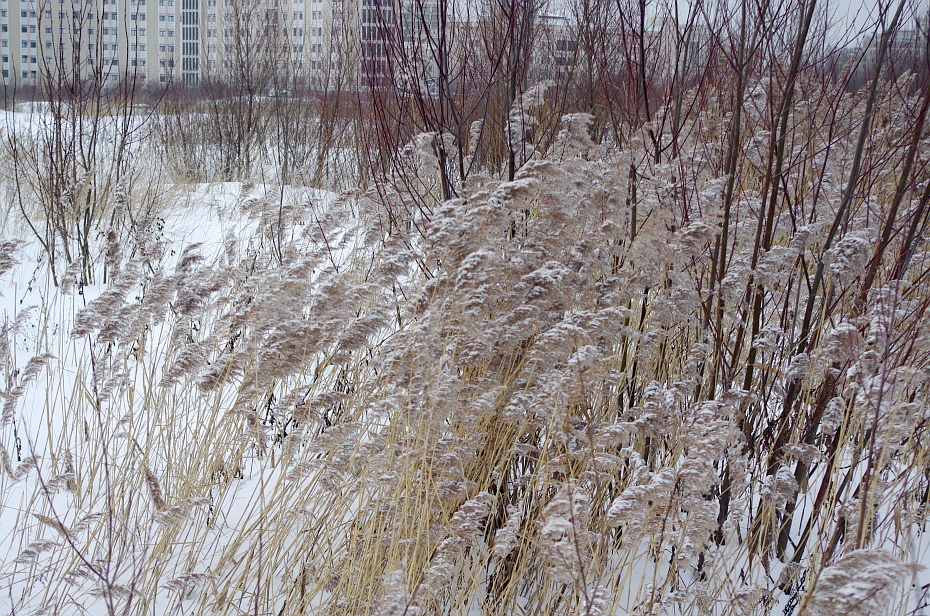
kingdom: Plantae
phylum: Tracheophyta
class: Liliopsida
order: Poales
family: Poaceae
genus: Phragmites
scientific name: Phragmites australis
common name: Common reed
